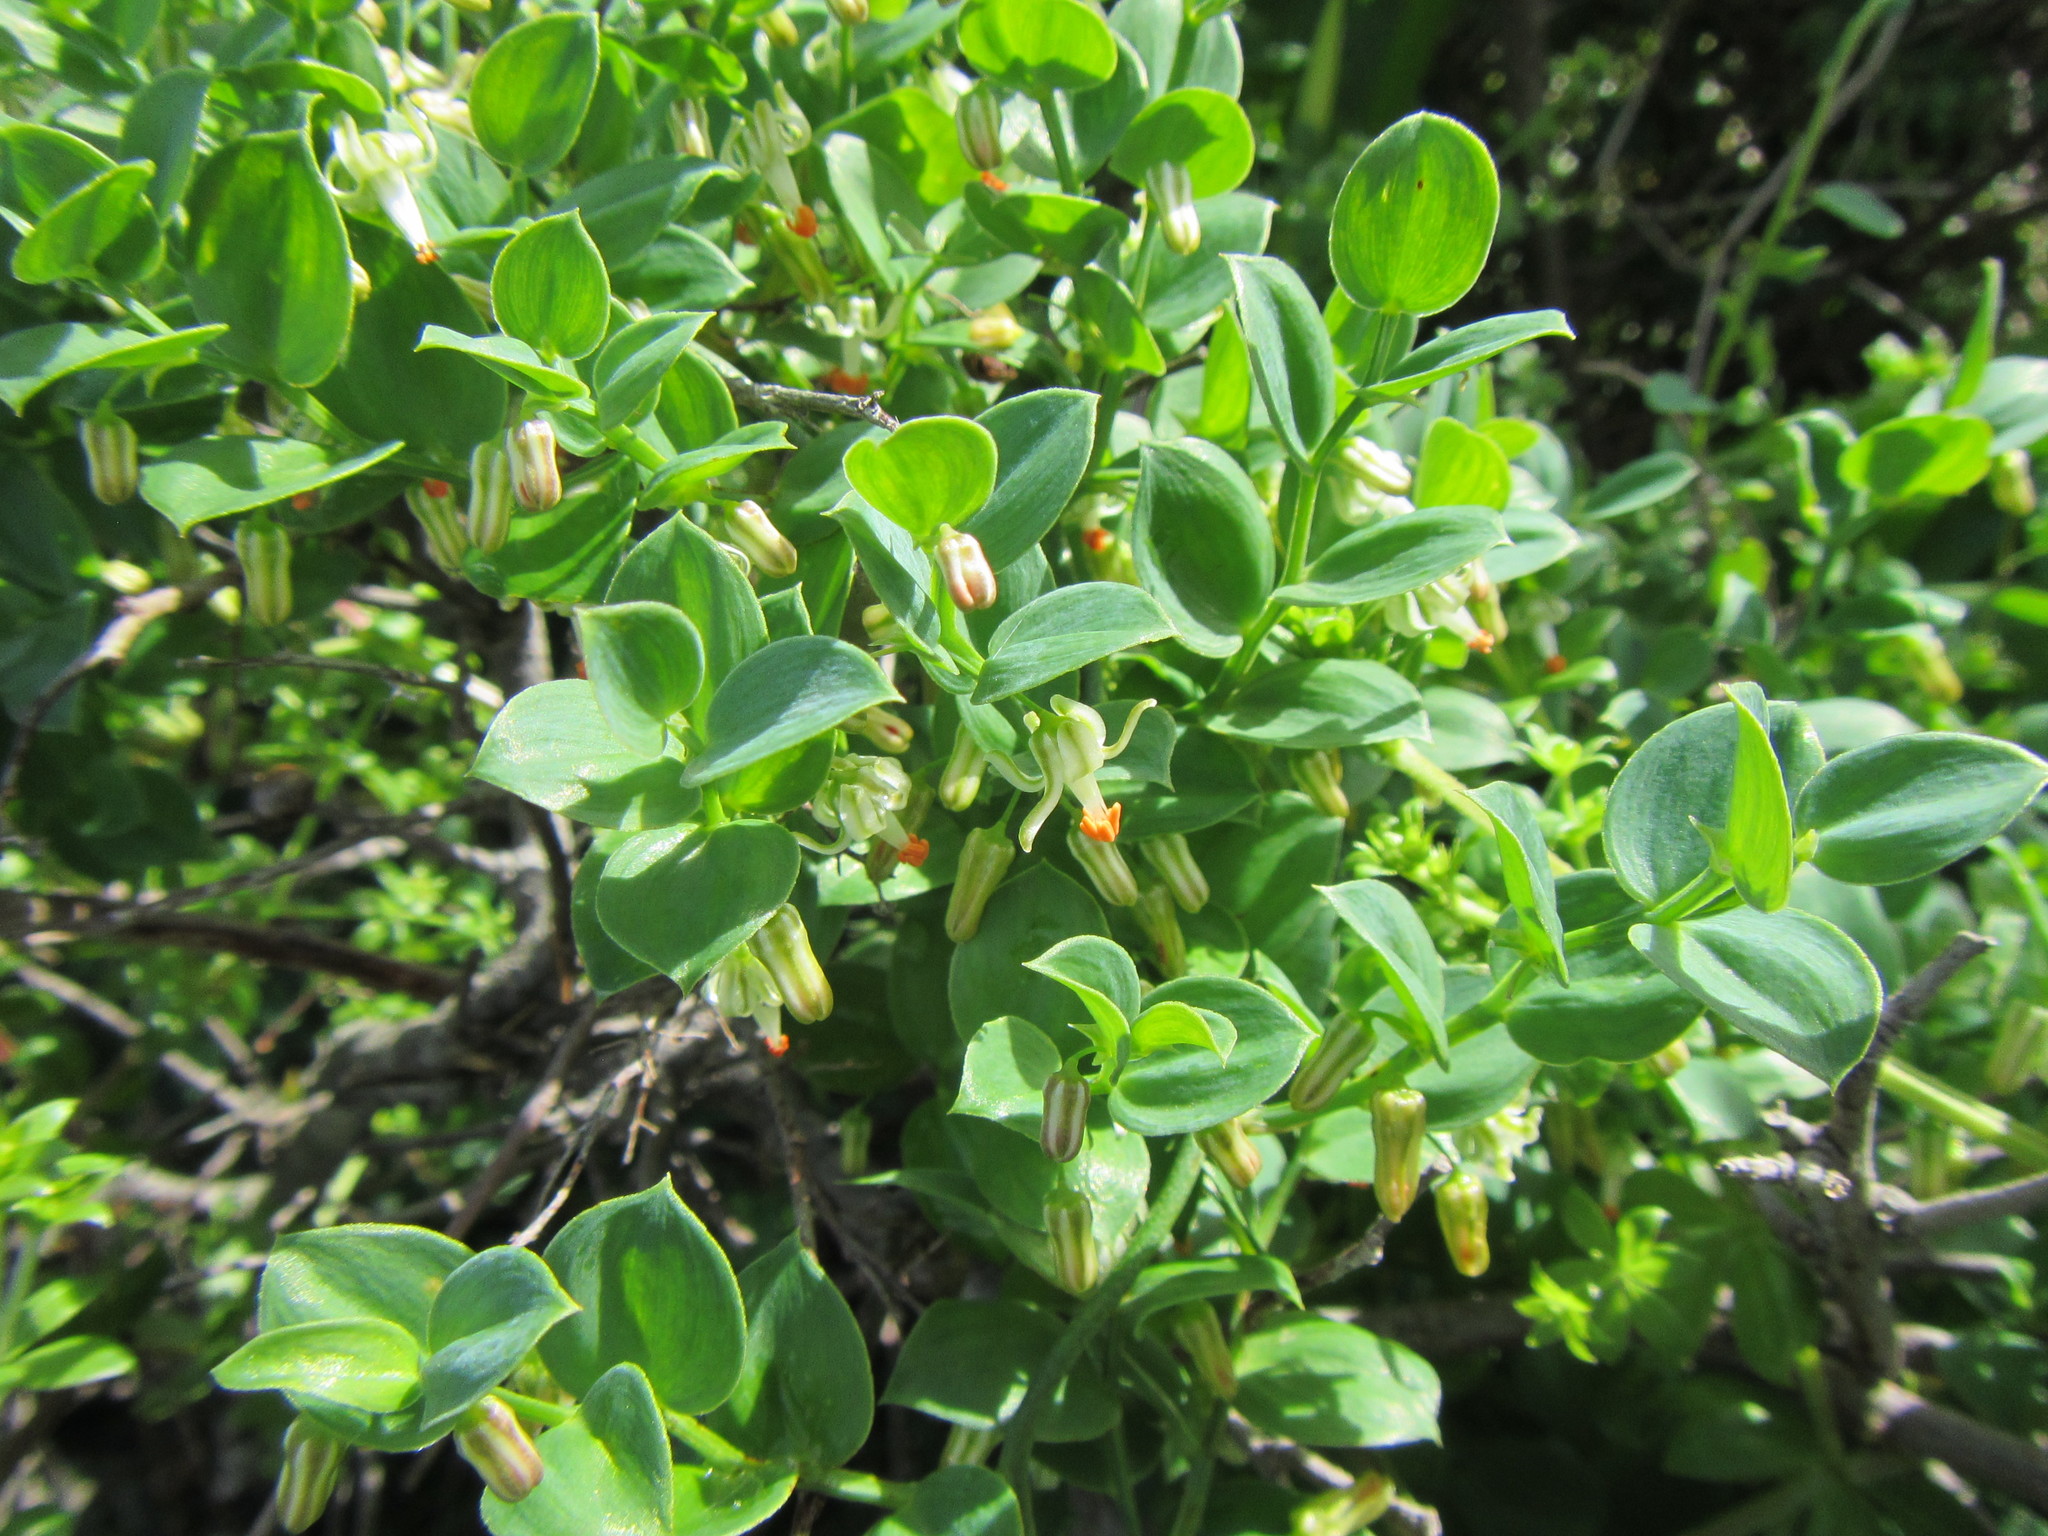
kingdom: Plantae
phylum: Tracheophyta
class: Liliopsida
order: Asparagales
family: Asparagaceae
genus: Asparagus
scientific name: Asparagus asparagoides
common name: African asparagus fern
